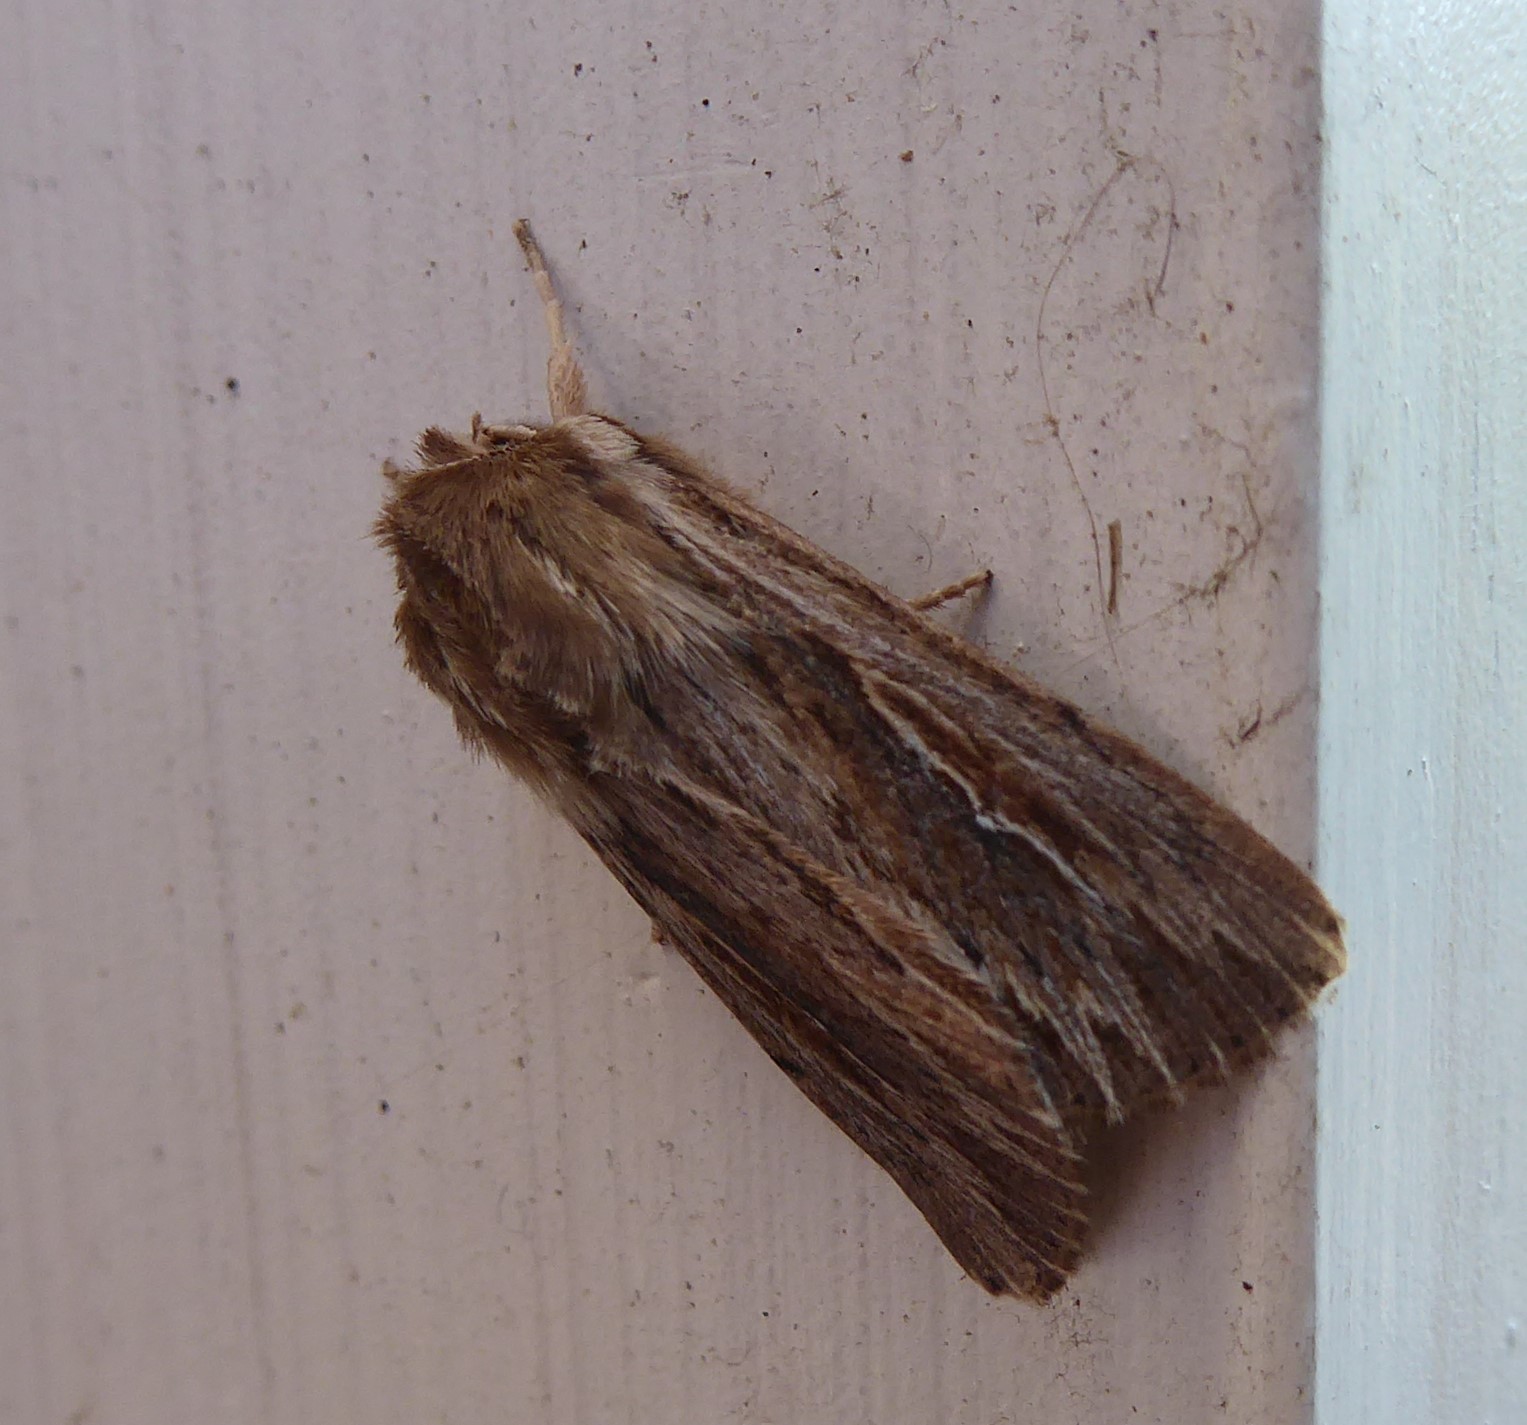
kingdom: Animalia
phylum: Arthropoda
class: Insecta
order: Lepidoptera
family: Noctuidae
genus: Persectania
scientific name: Persectania aversa
